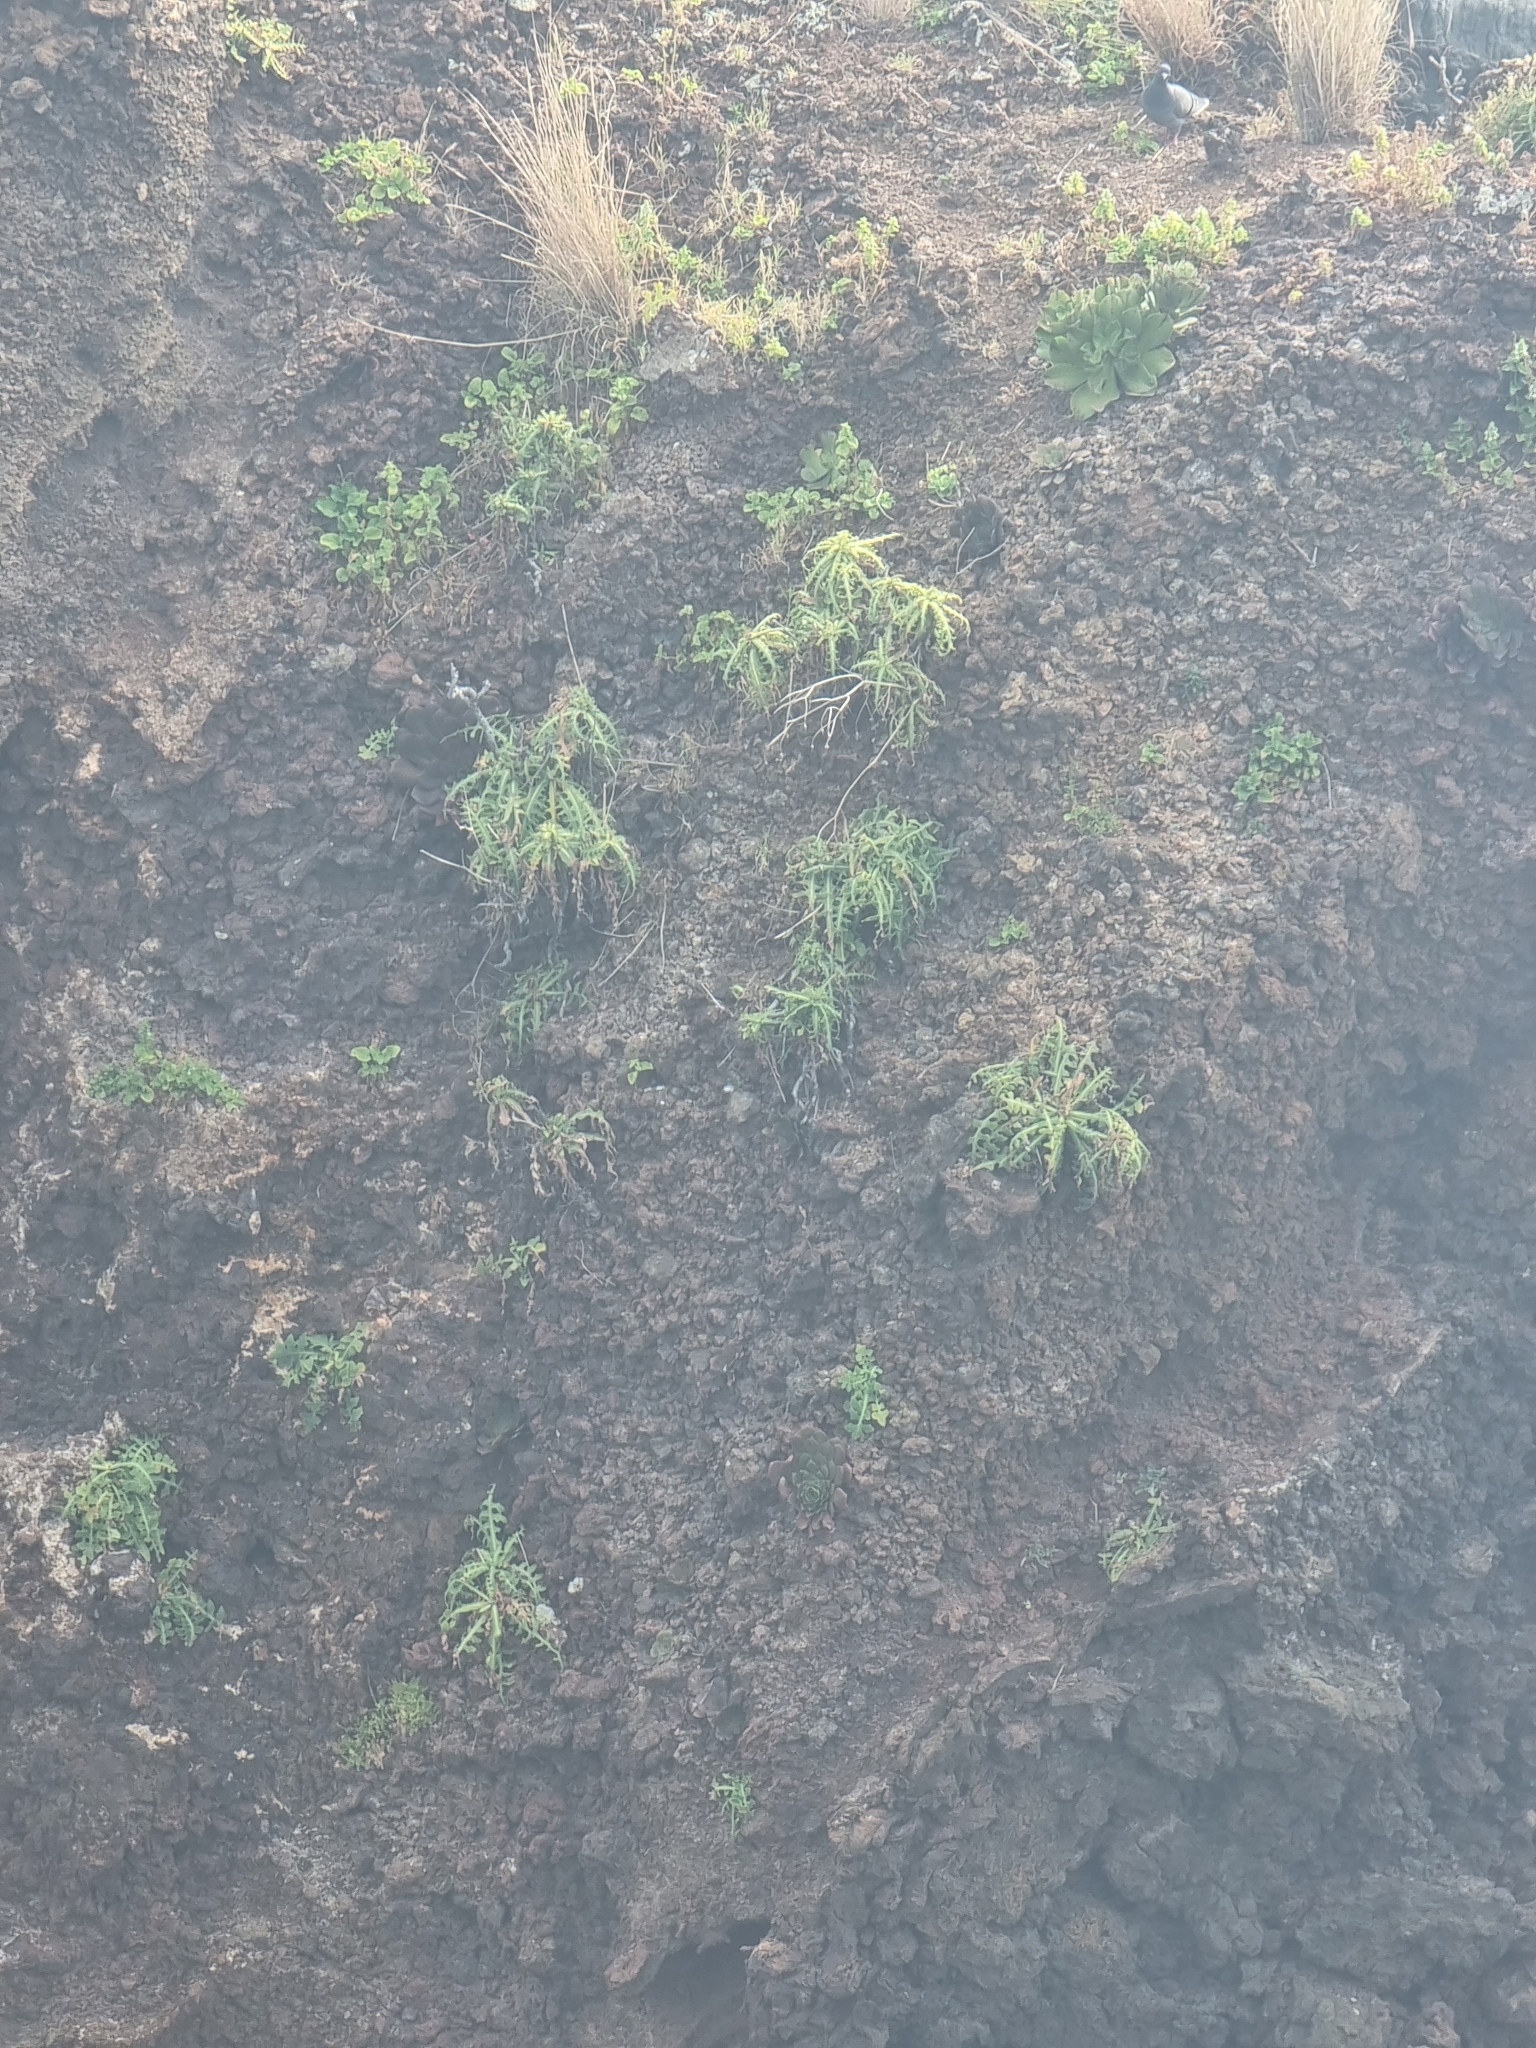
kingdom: Plantae
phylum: Tracheophyta
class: Magnoliopsida
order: Asterales
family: Asteraceae
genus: Sonchus
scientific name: Sonchus ustulatus
